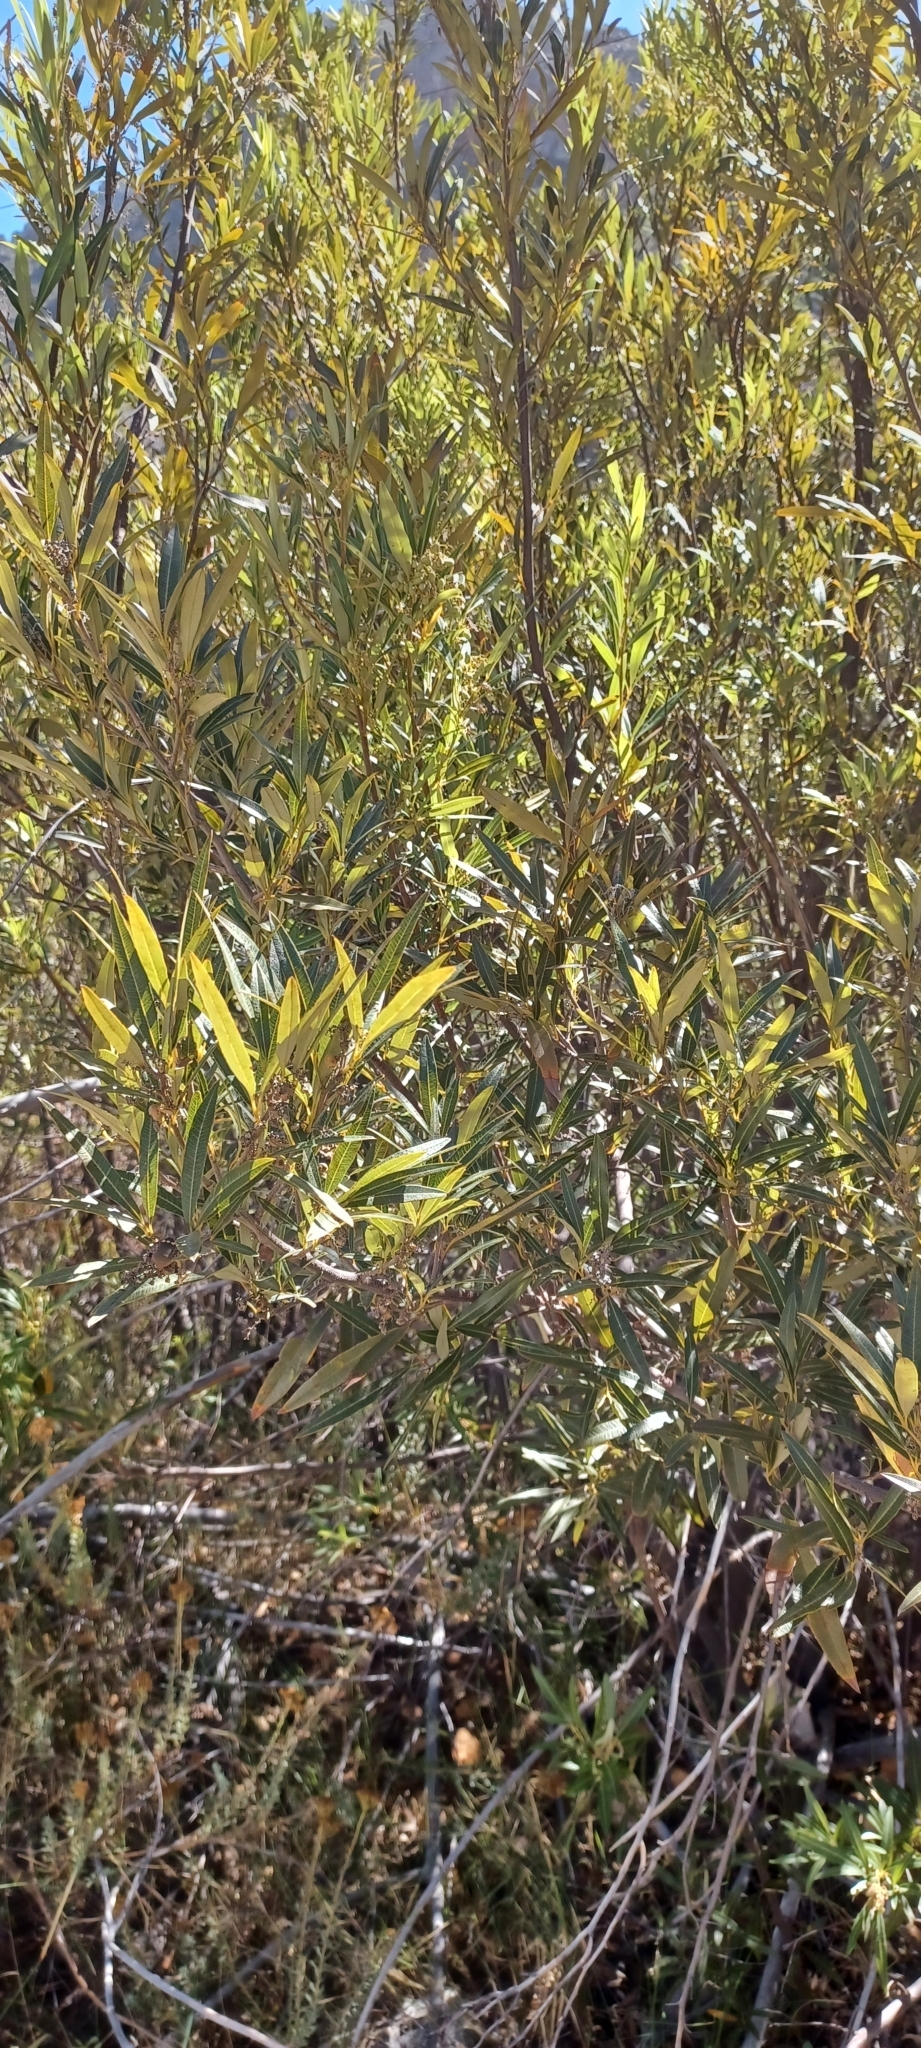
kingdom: Plantae
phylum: Tracheophyta
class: Magnoliopsida
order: Sapindales
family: Anacardiaceae
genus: Searsia
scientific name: Searsia angustifolia
